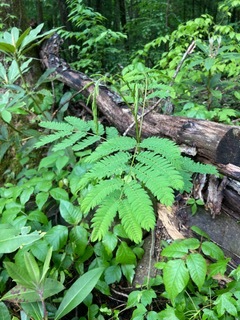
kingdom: Plantae
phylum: Tracheophyta
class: Magnoliopsida
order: Fabales
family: Fabaceae
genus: Albizia
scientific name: Albizia julibrissin
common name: Silktree
